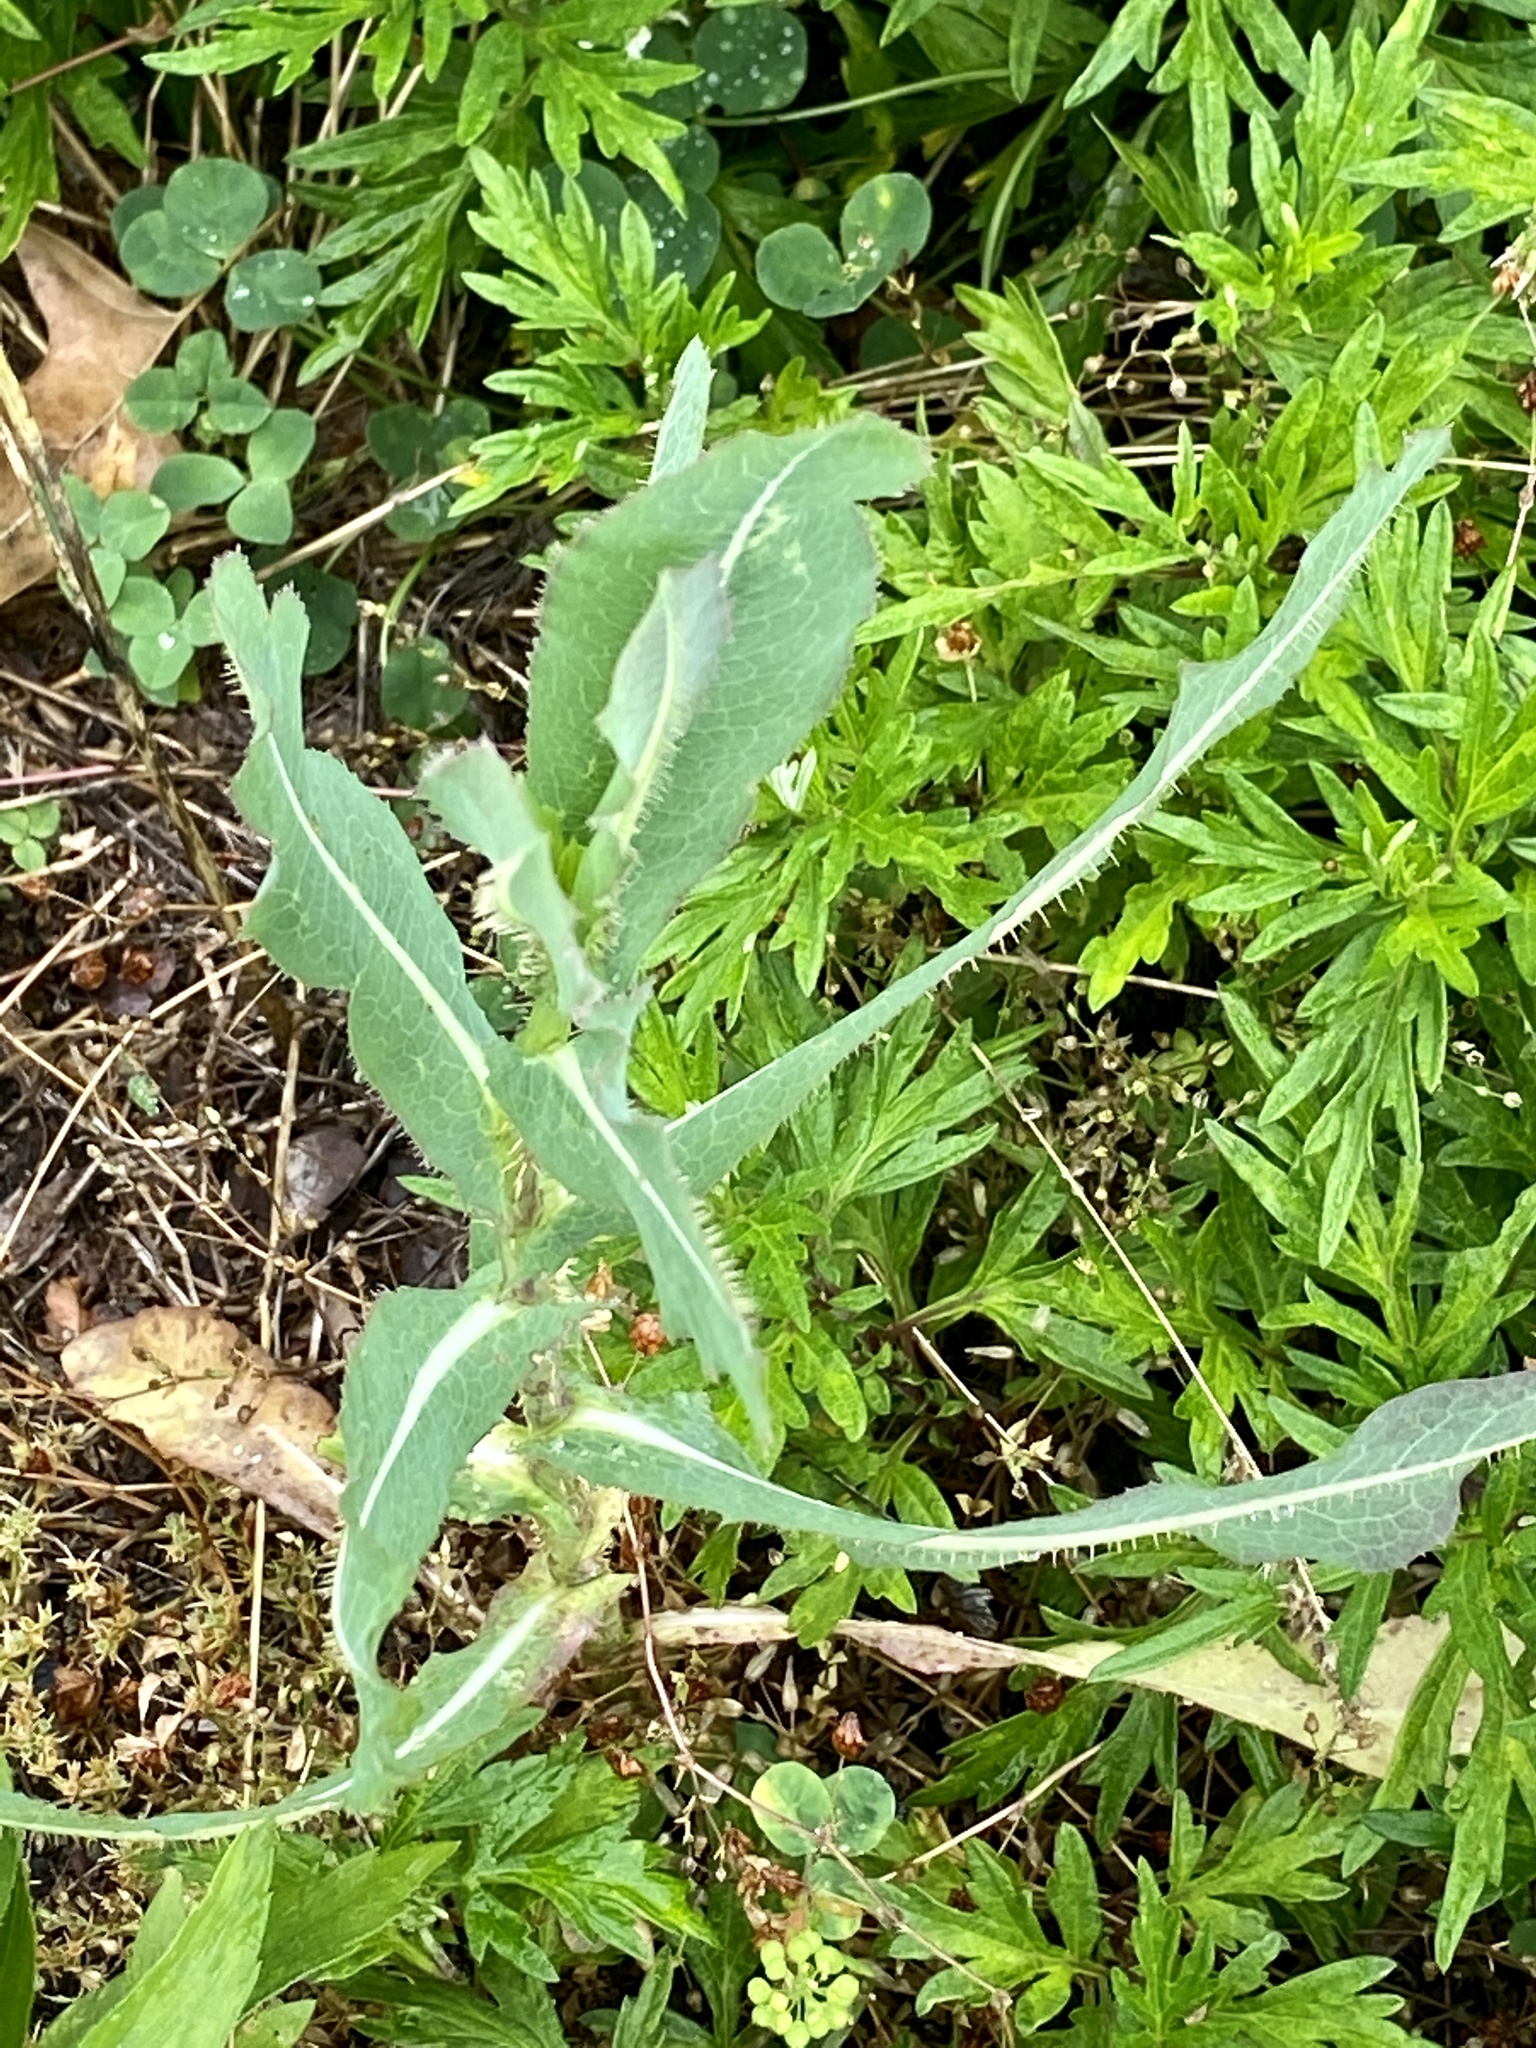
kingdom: Plantae
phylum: Tracheophyta
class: Magnoliopsida
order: Asterales
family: Asteraceae
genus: Lactuca
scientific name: Lactuca serriola
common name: Prickly lettuce
